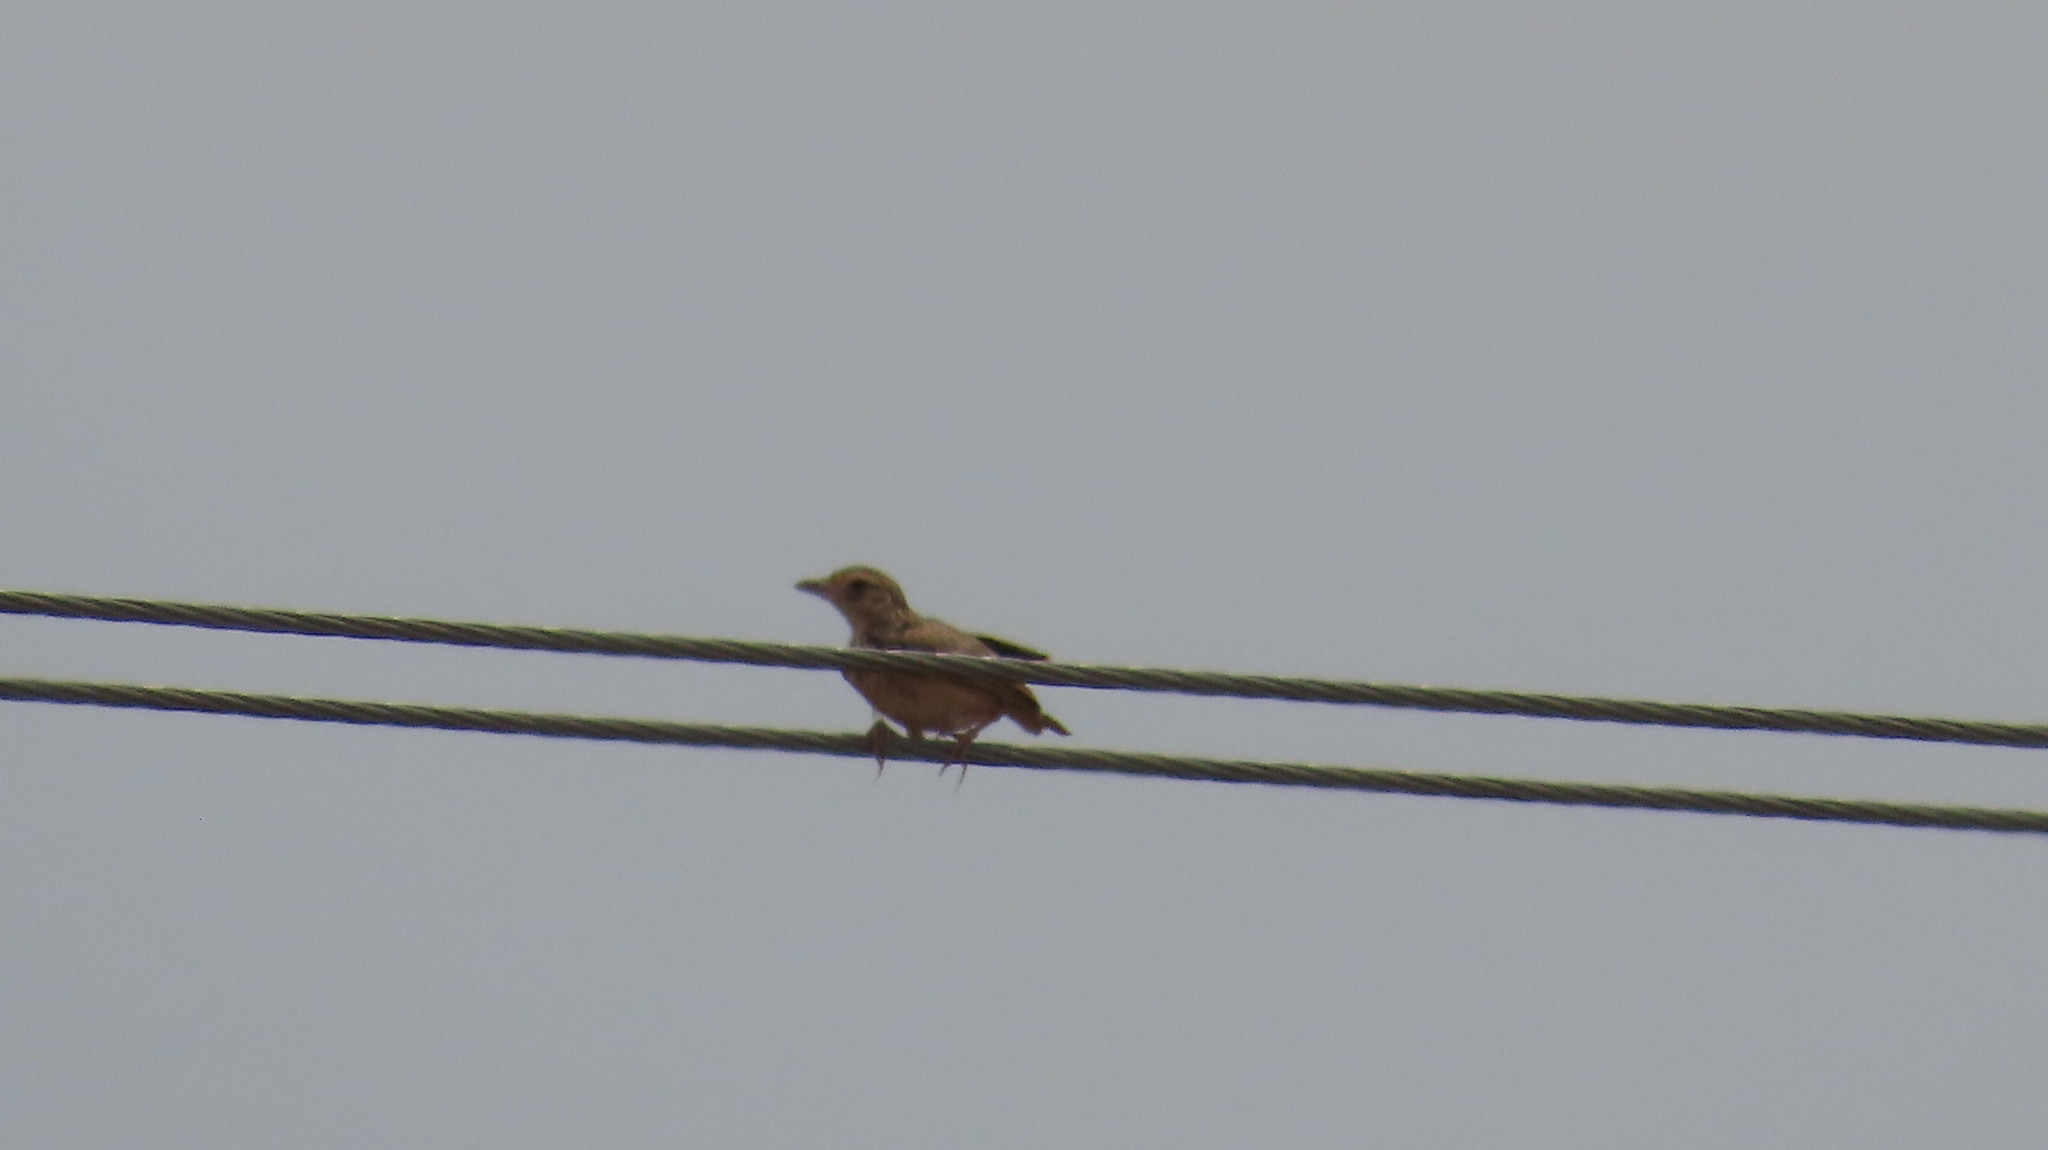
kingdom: Animalia
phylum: Chordata
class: Aves
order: Passeriformes
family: Alaudidae
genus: Mirafra
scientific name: Mirafra affinis
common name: Jerdon's bushlark
